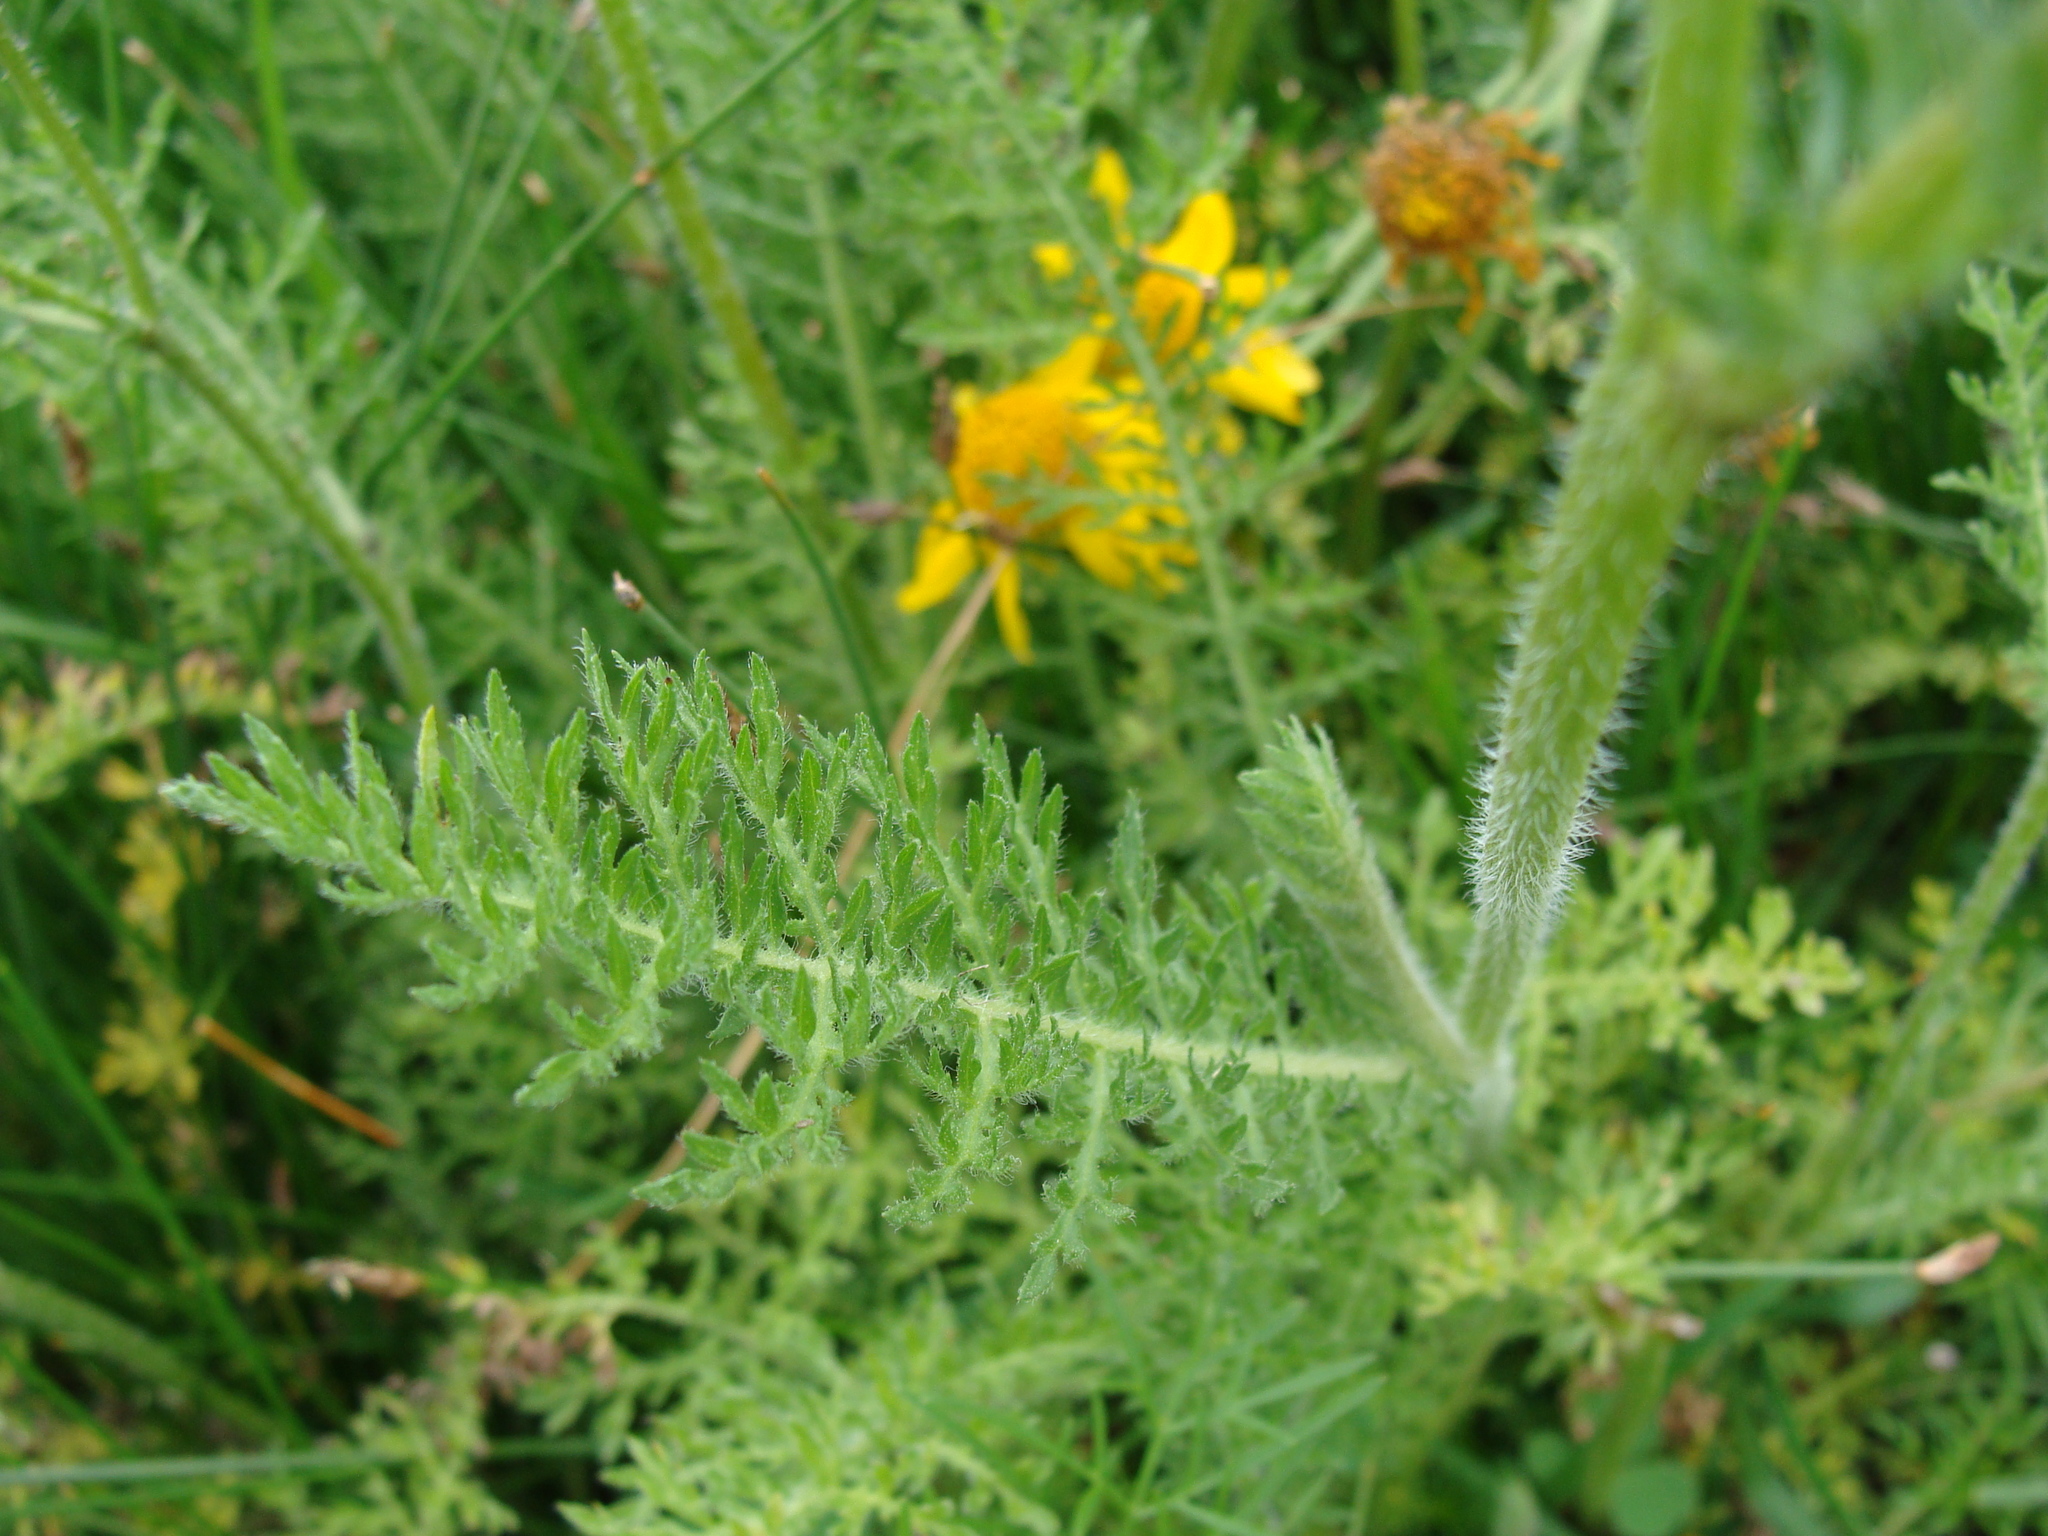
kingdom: Plantae
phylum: Tracheophyta
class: Magnoliopsida
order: Asterales
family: Asteraceae
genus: Hybridella
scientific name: Hybridella globosa
